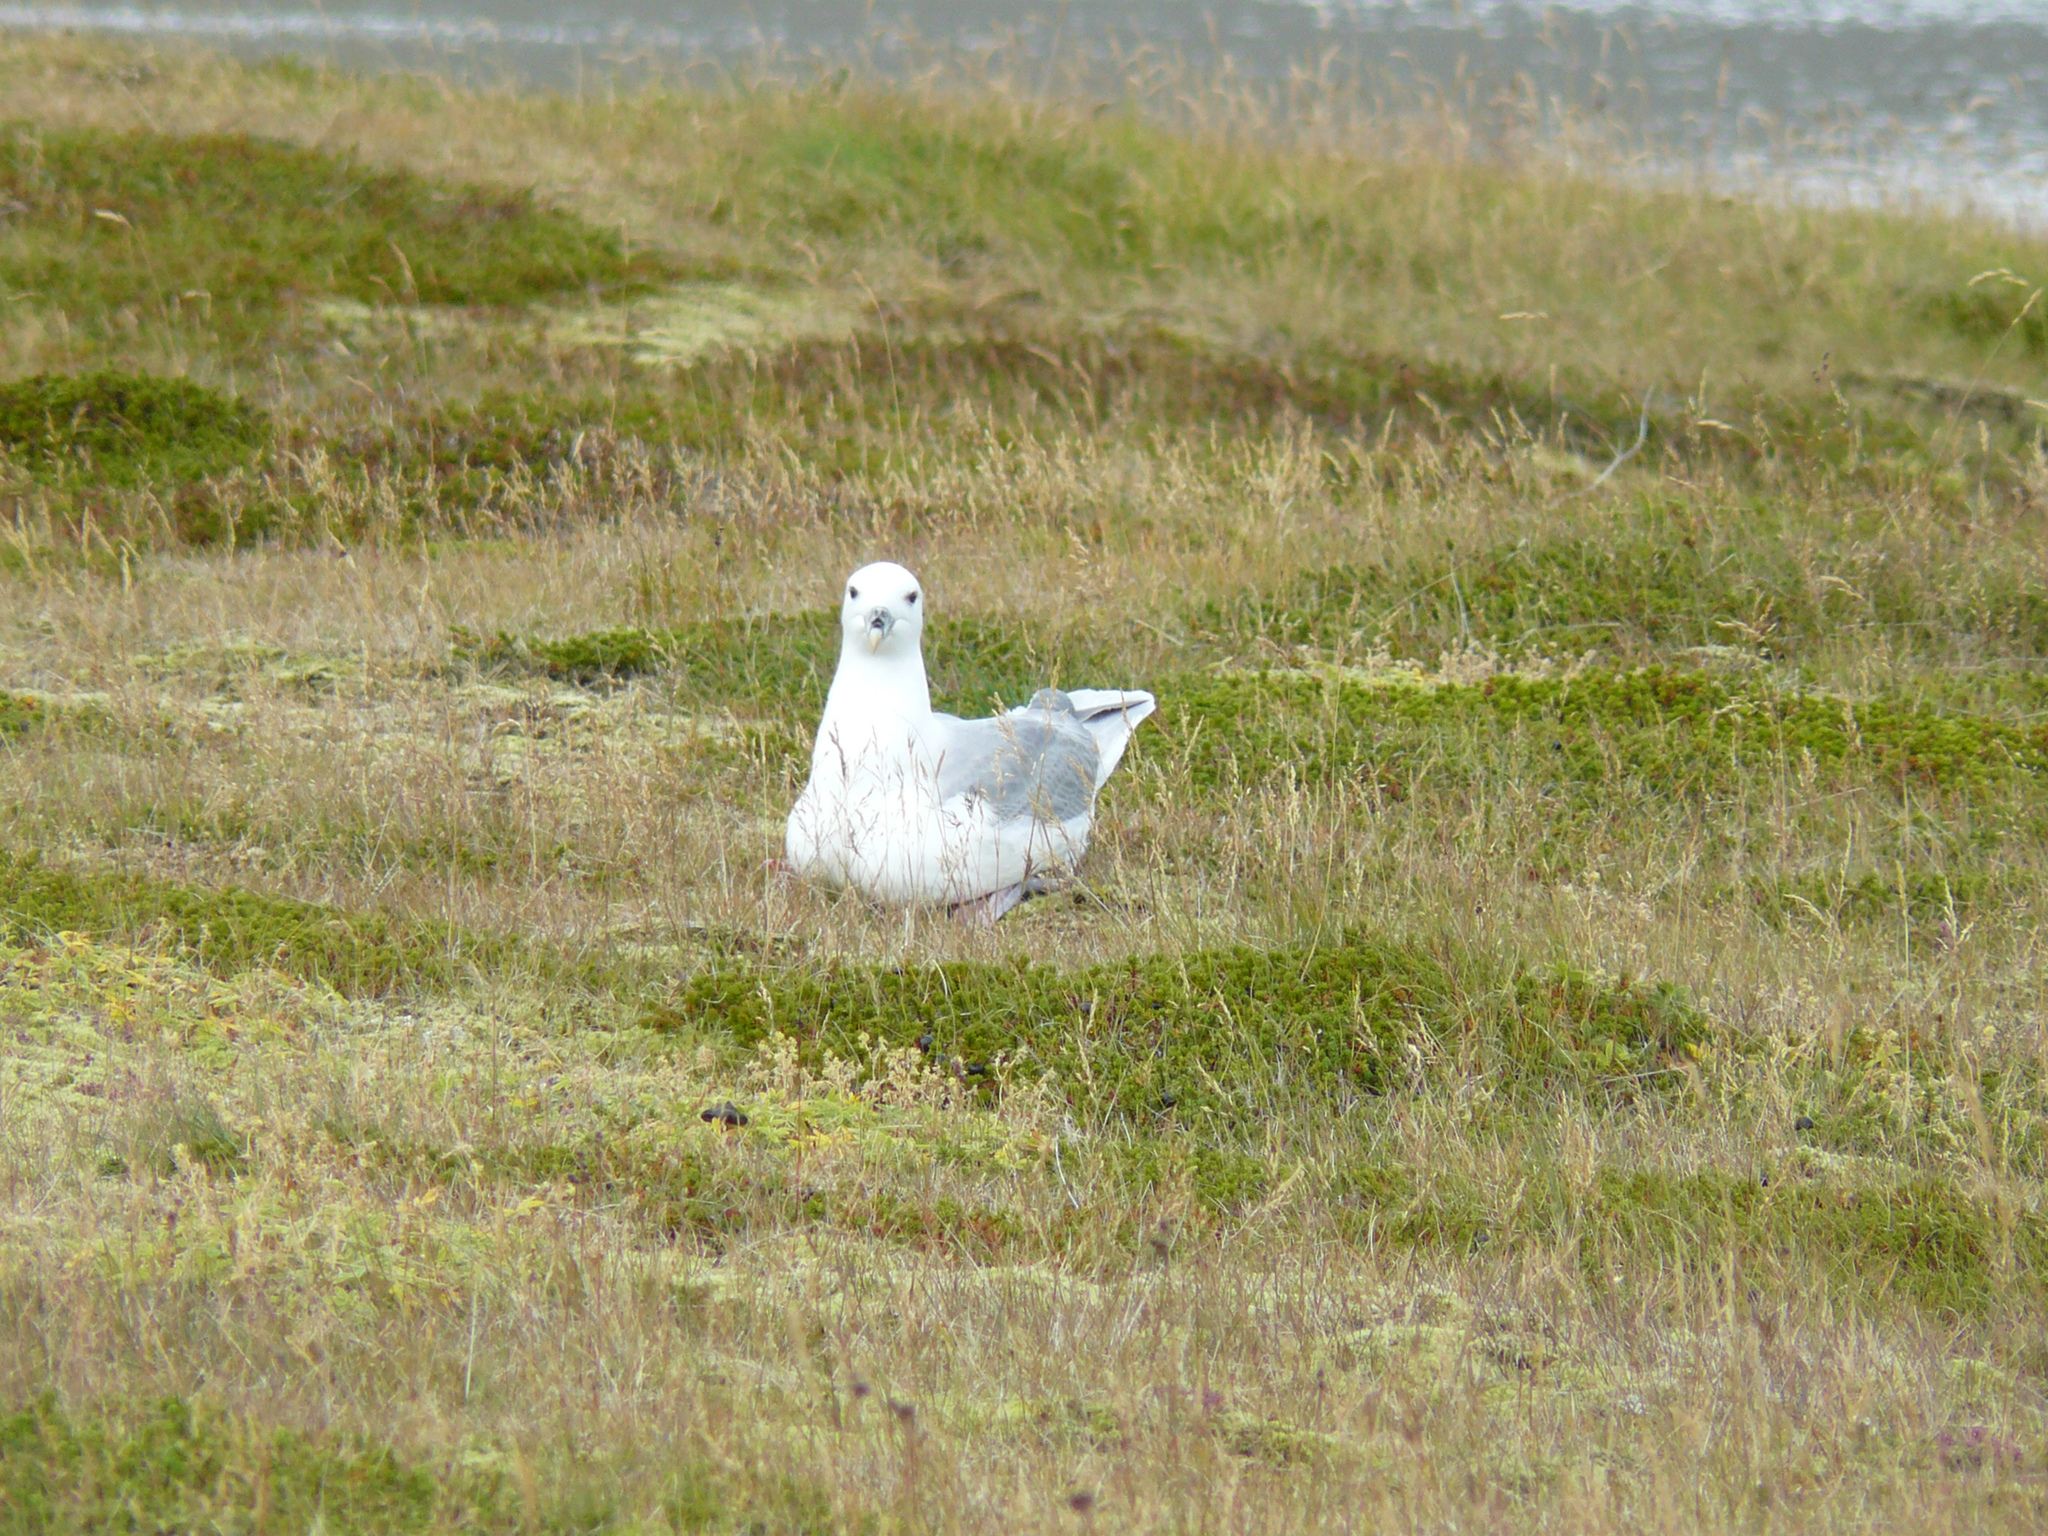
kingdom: Animalia
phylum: Chordata
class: Aves
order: Procellariiformes
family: Procellariidae
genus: Fulmarus
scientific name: Fulmarus glacialis
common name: Northern fulmar
